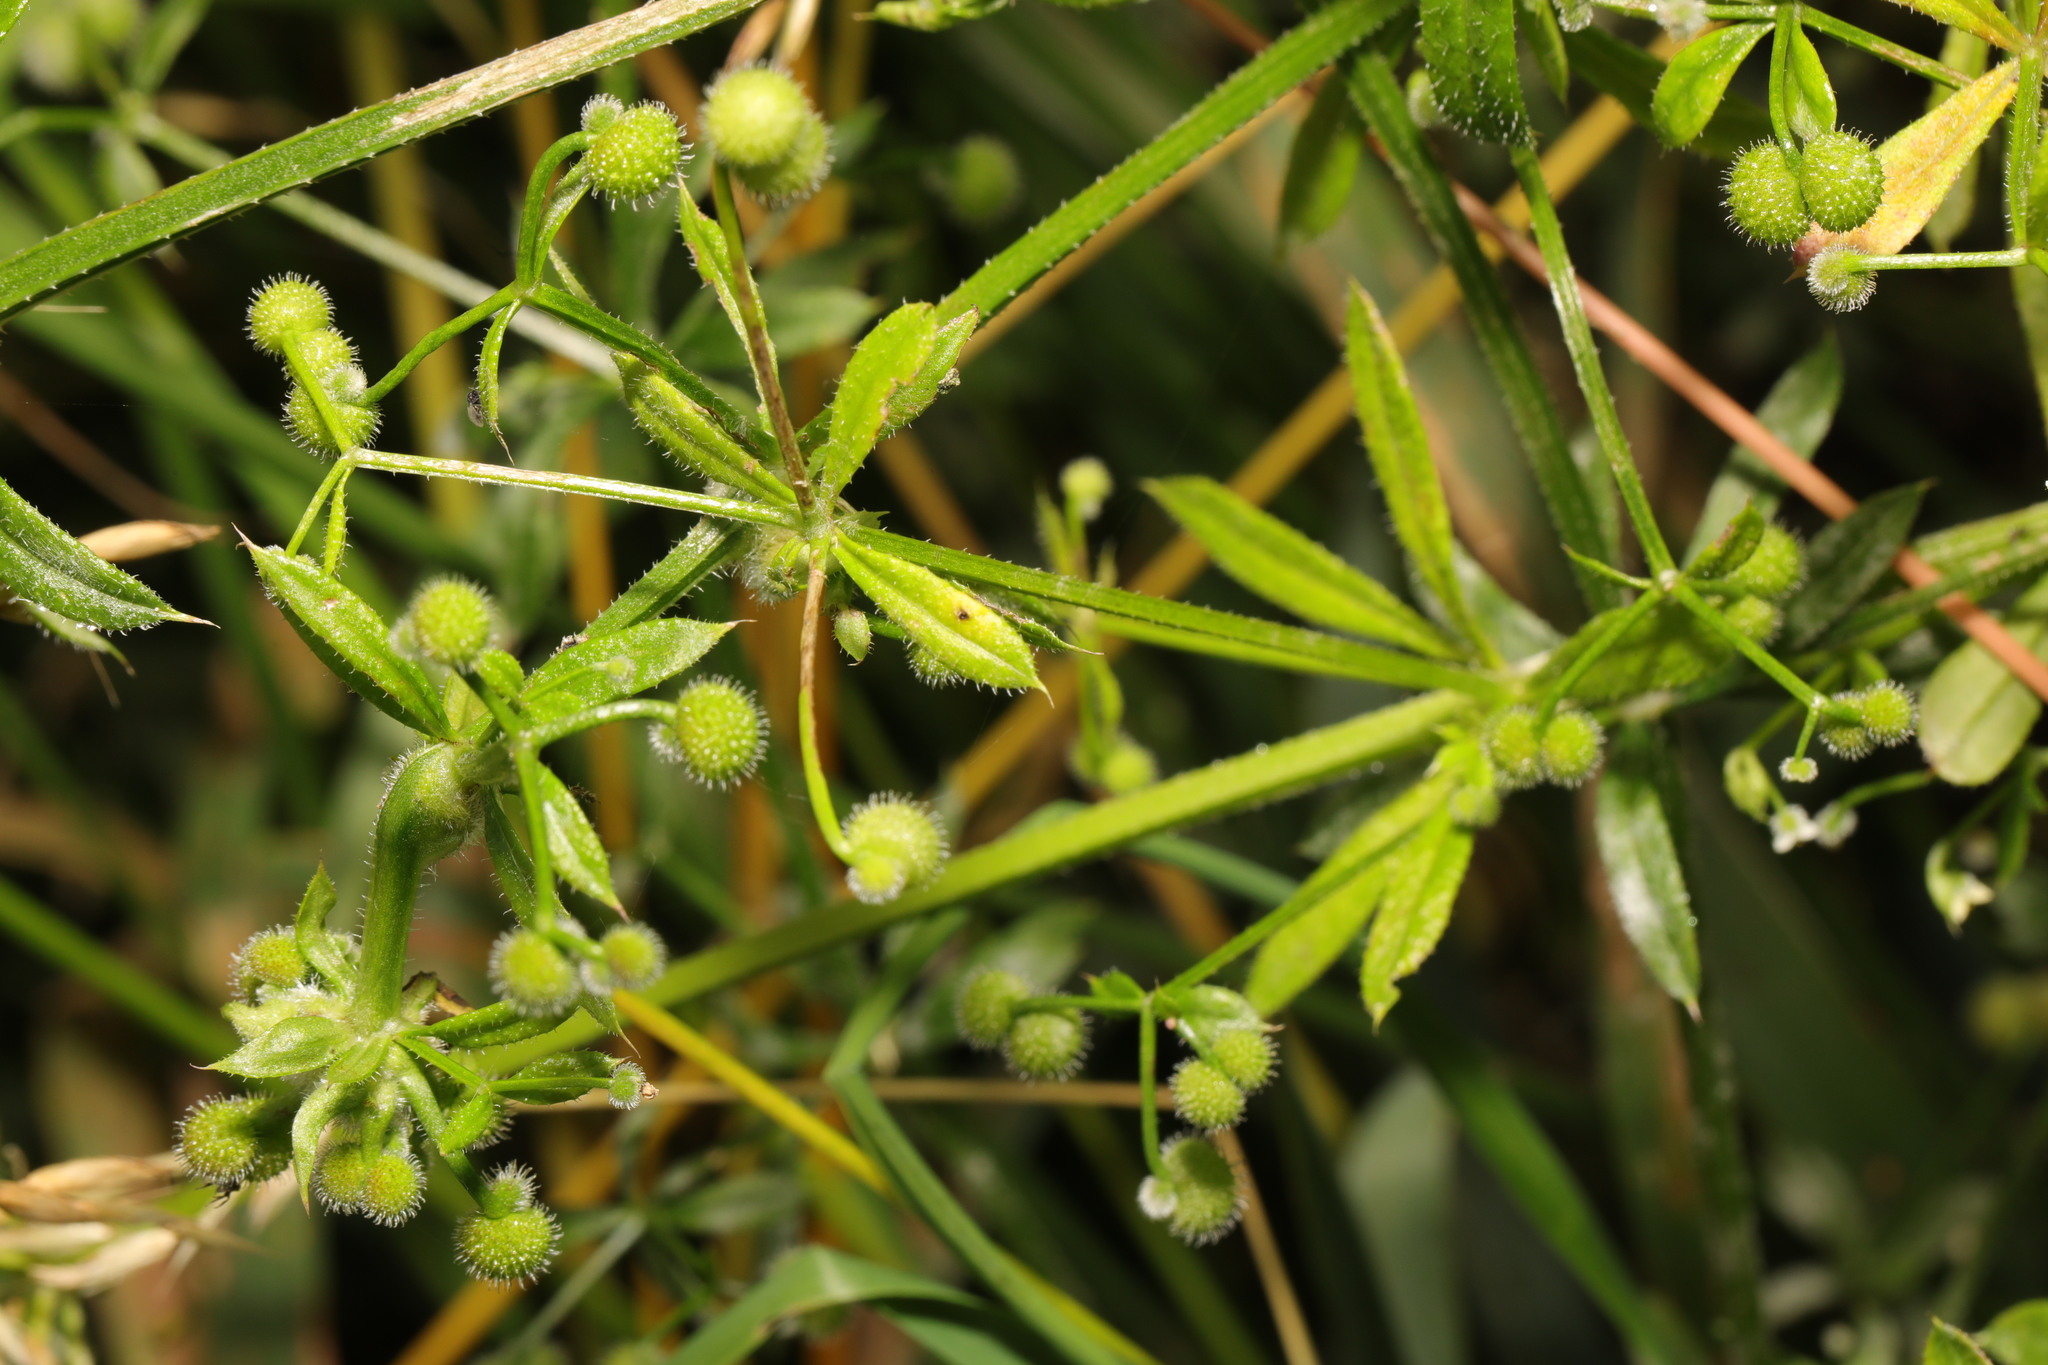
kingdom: Plantae
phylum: Tracheophyta
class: Magnoliopsida
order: Gentianales
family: Rubiaceae
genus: Galium
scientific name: Galium aparine
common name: Cleavers
